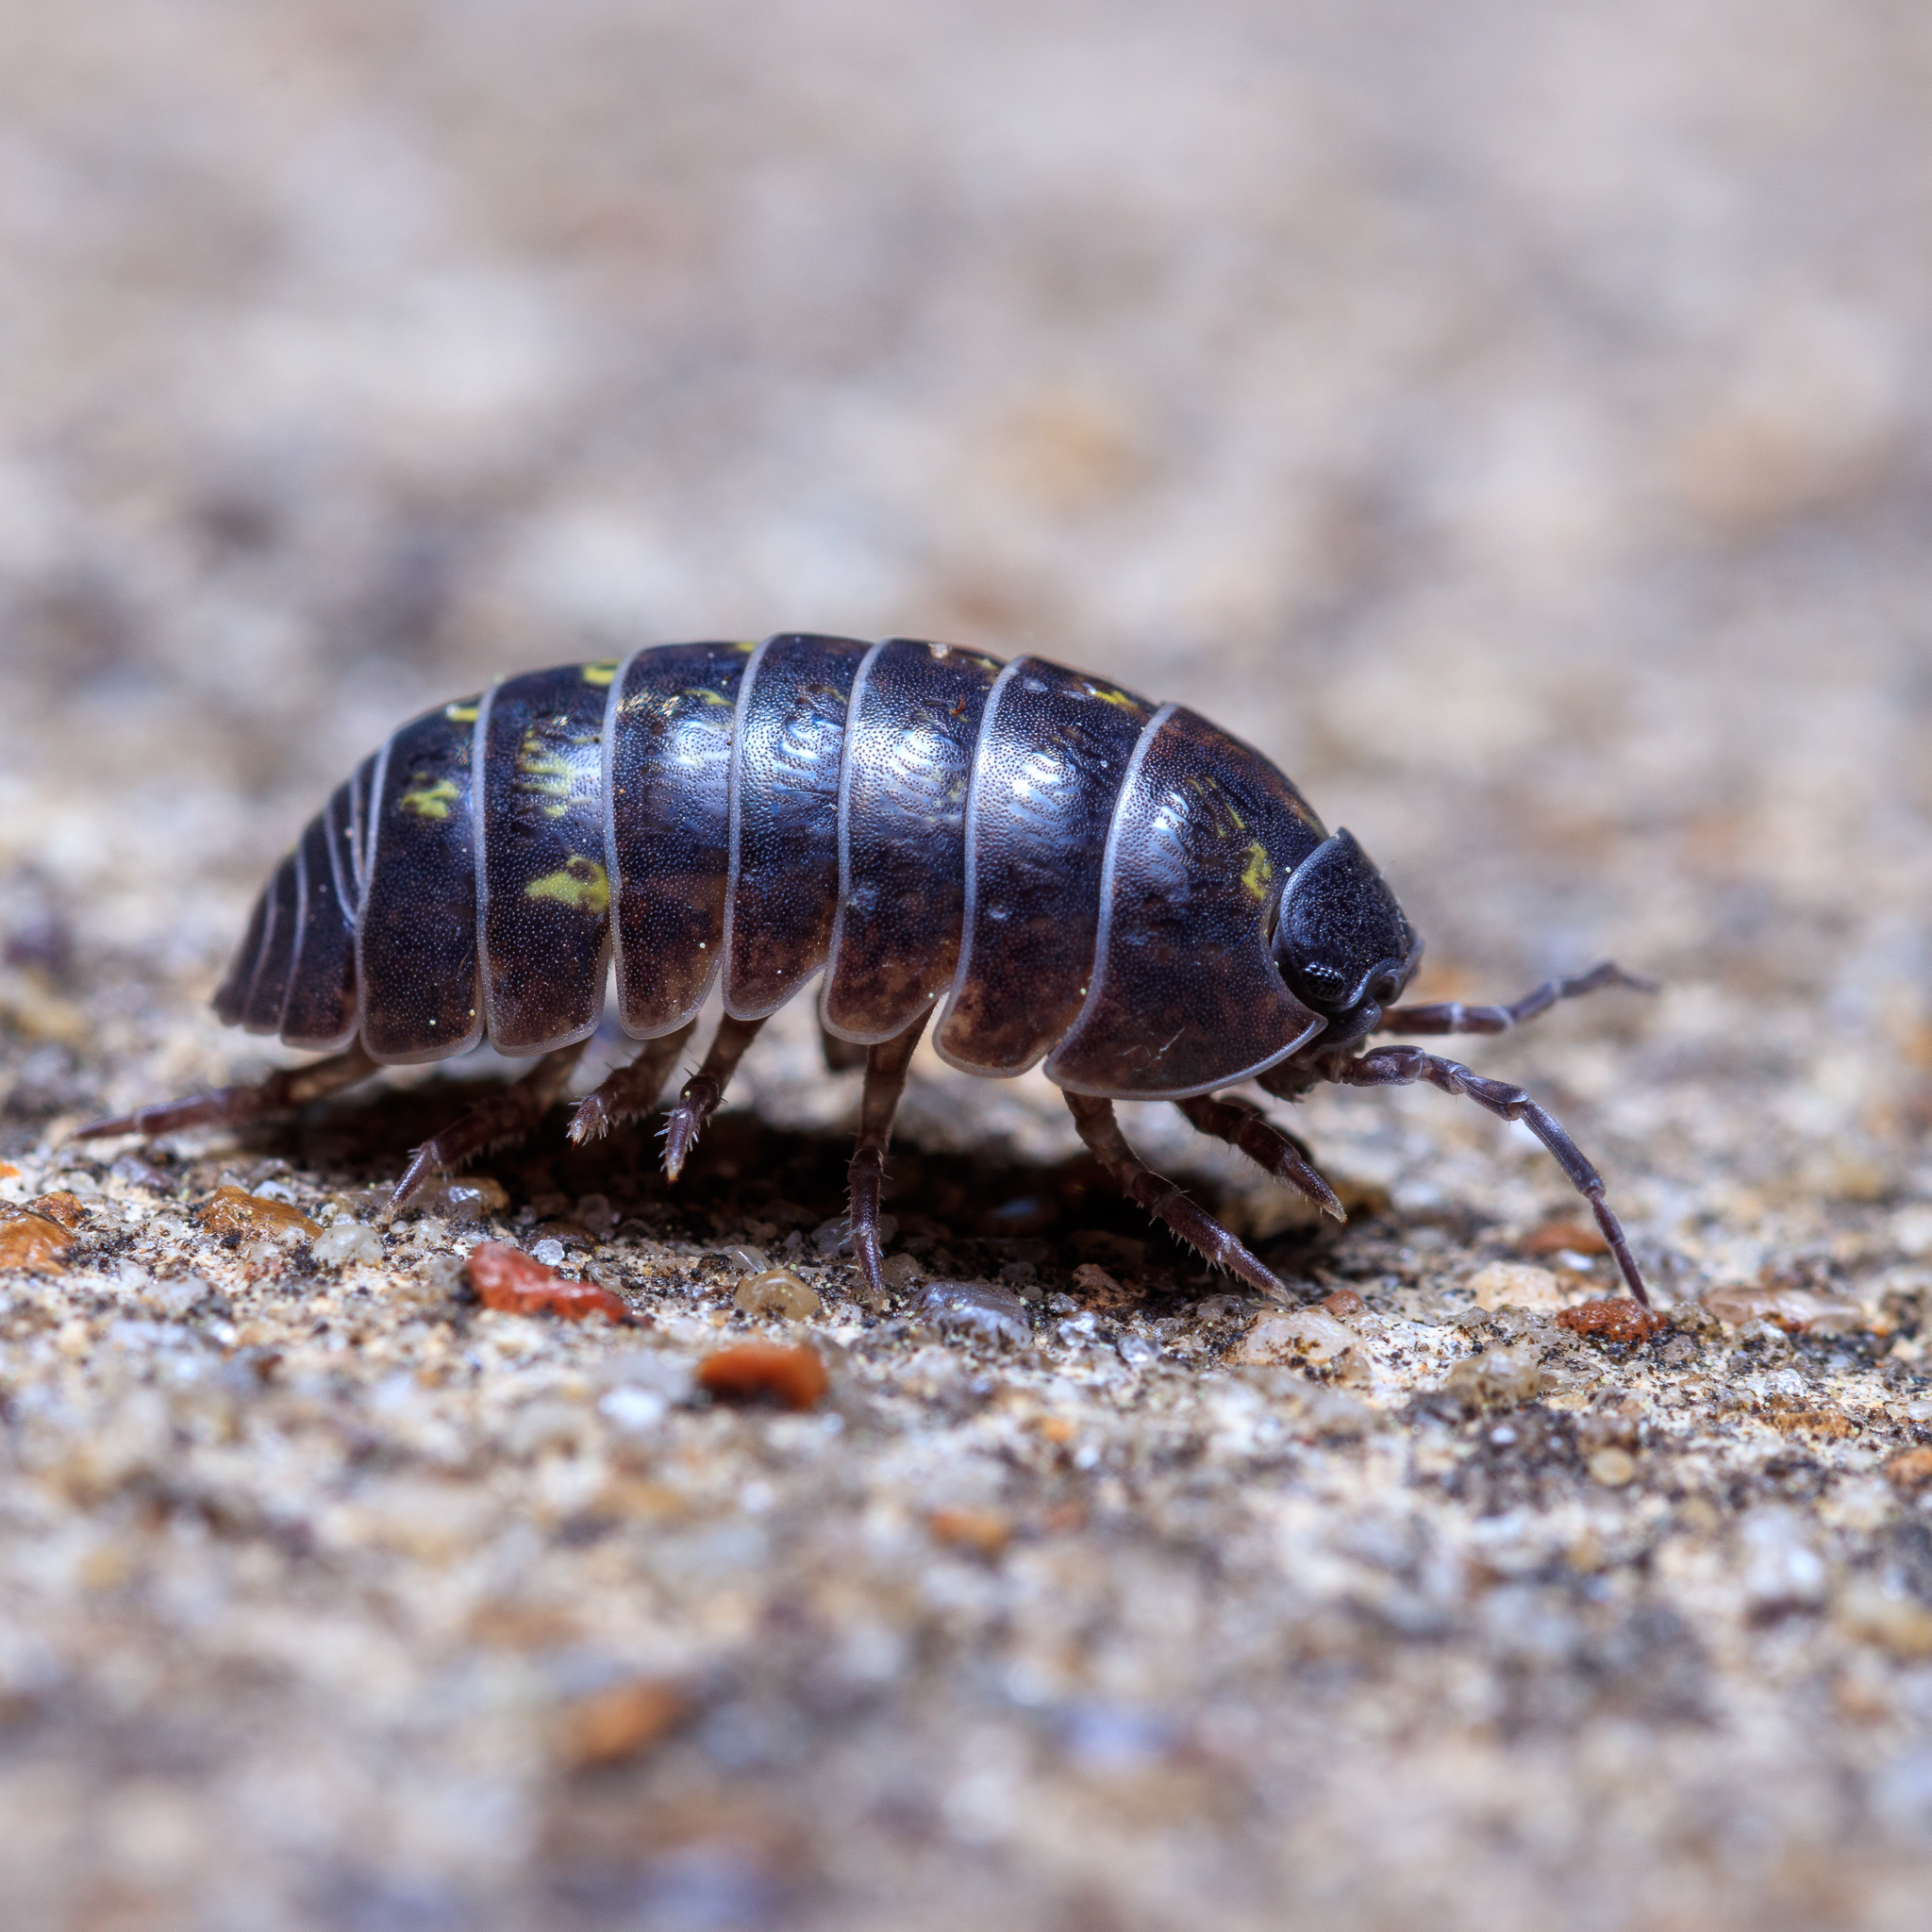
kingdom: Animalia
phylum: Arthropoda
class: Malacostraca
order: Isopoda
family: Armadillidiidae
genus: Armadillidium
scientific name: Armadillidium vulgare
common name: Common pill woodlouse
